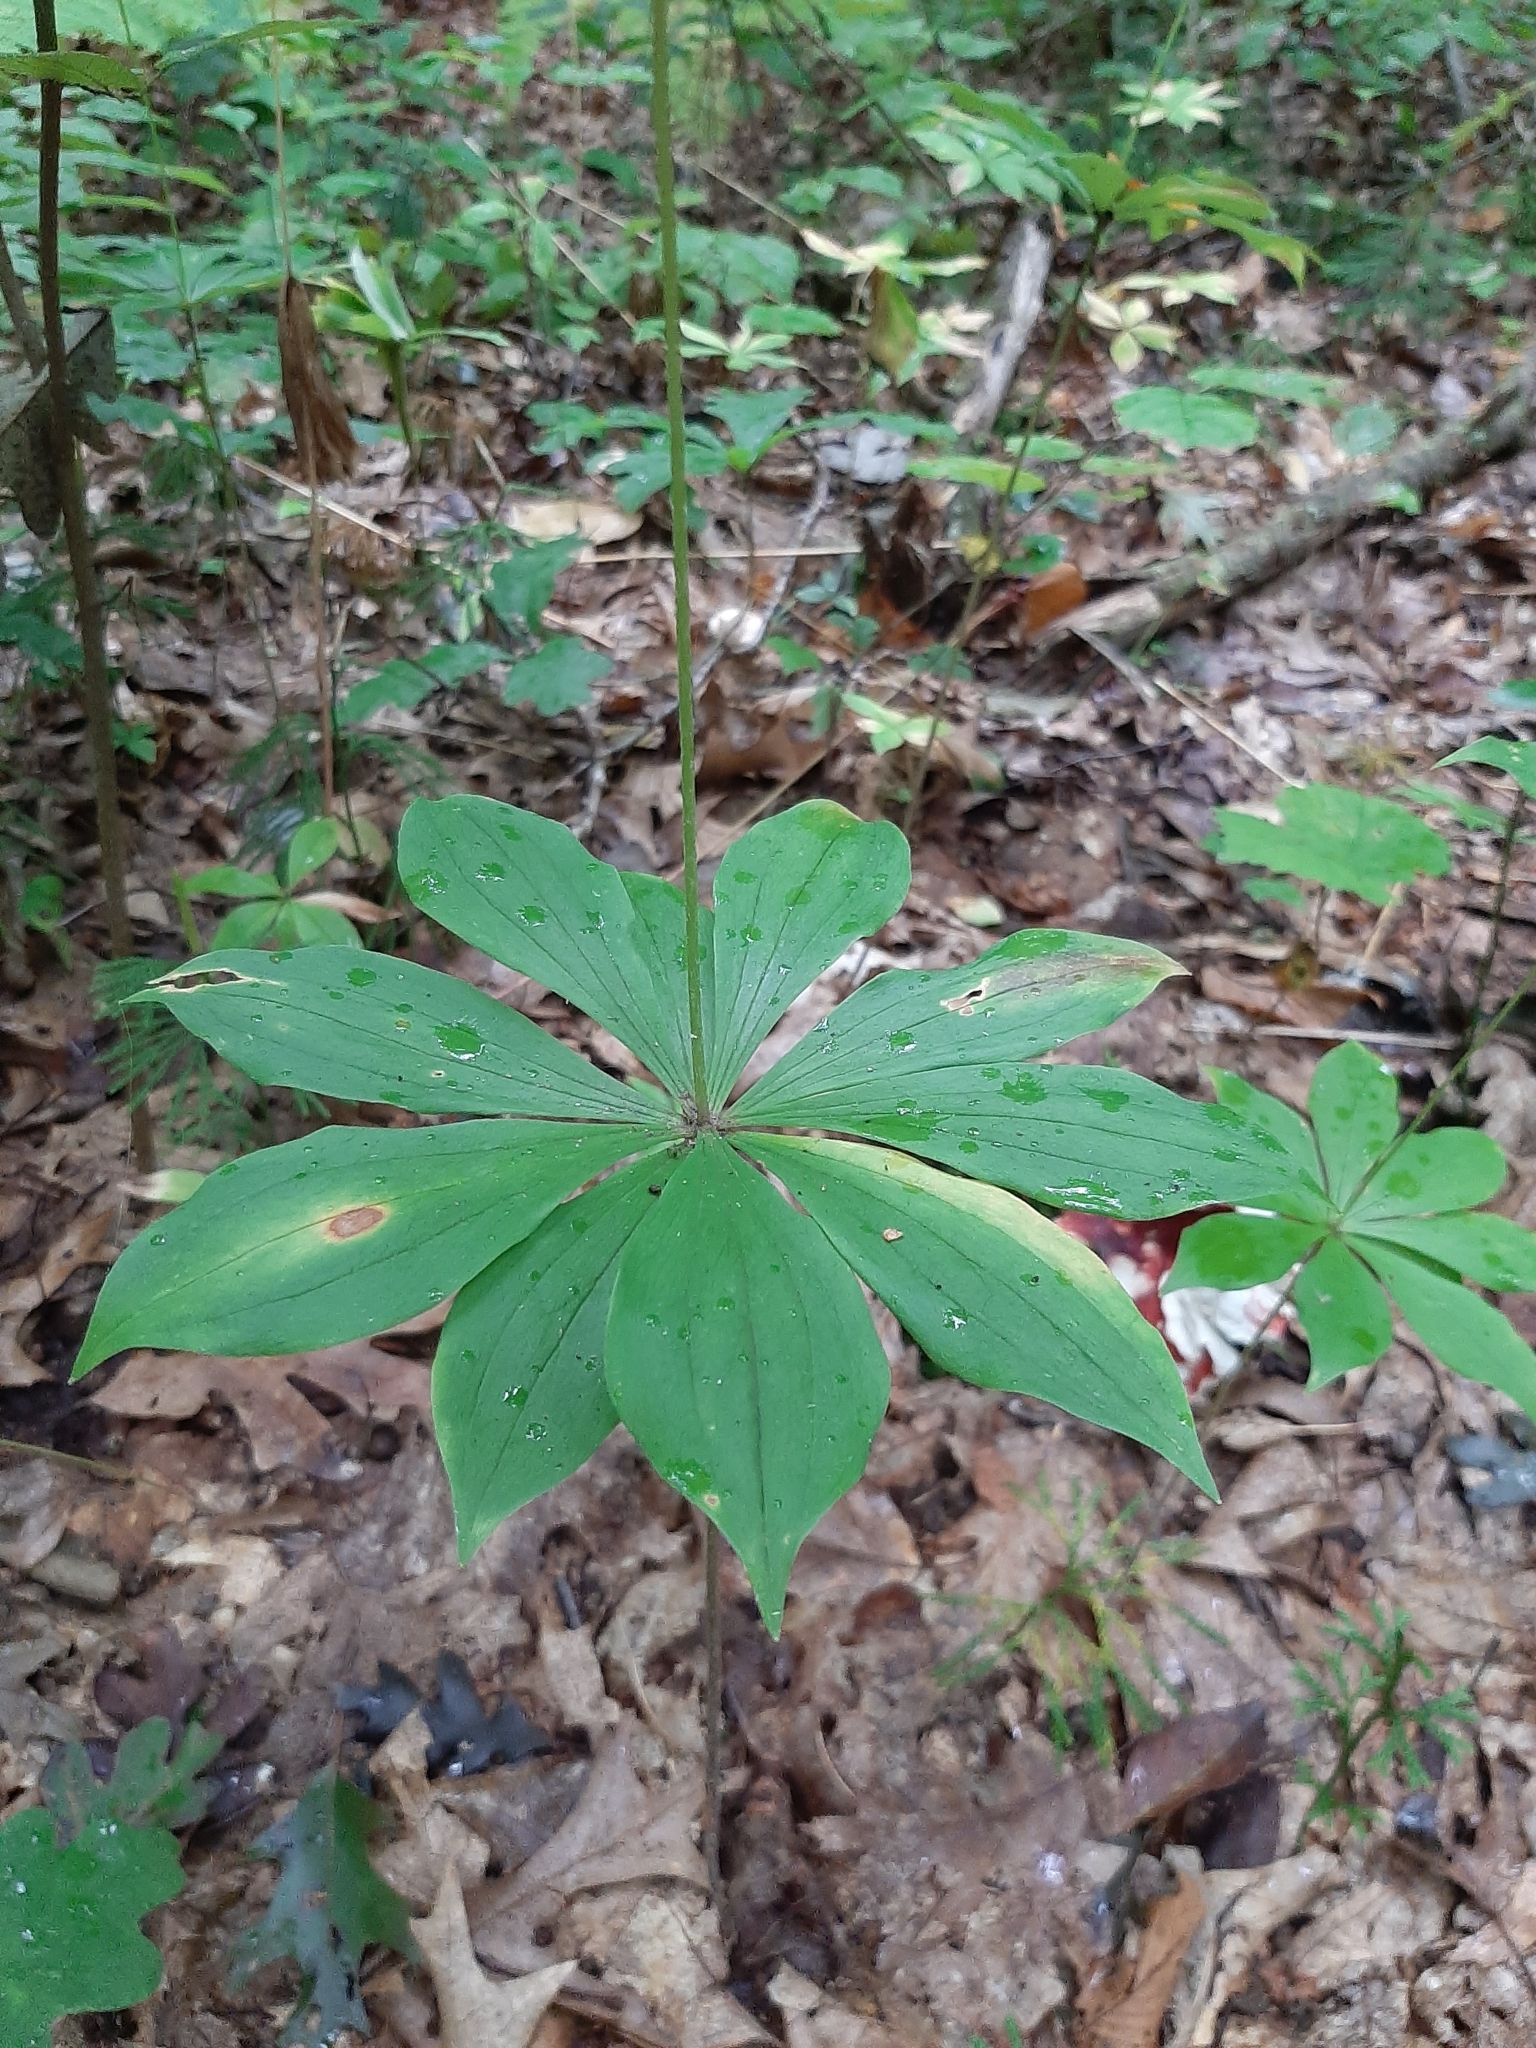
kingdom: Plantae
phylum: Tracheophyta
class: Liliopsida
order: Liliales
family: Liliaceae
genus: Medeola
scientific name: Medeola virginiana
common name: Indian cucumber-root
